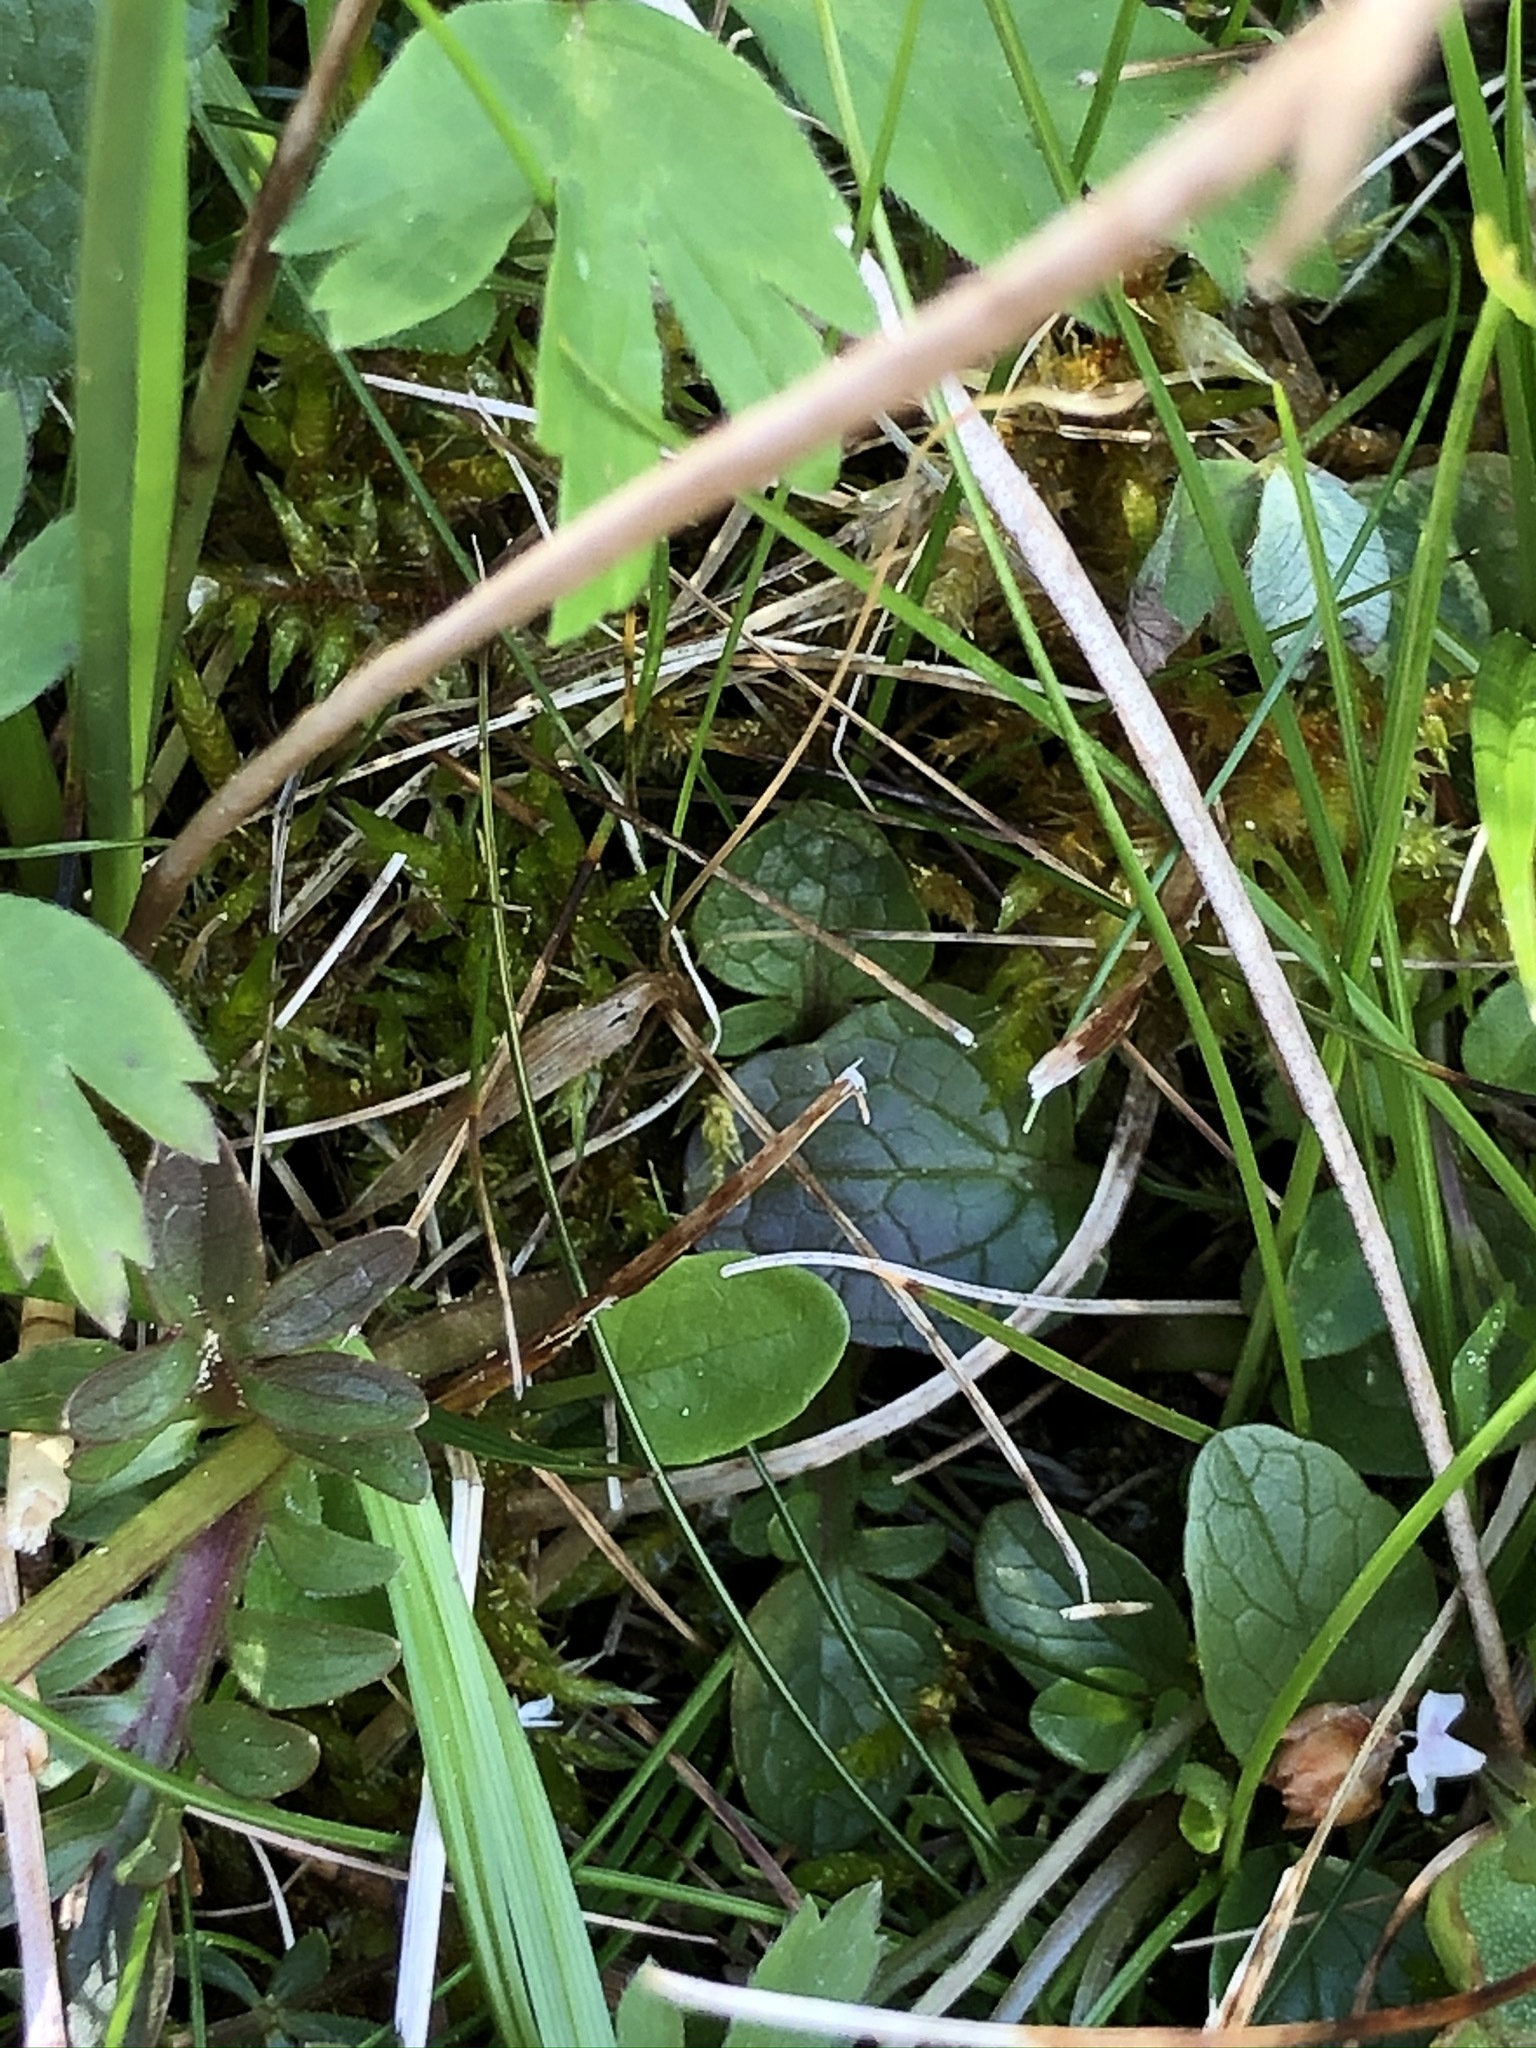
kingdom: Plantae
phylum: Tracheophyta
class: Magnoliopsida
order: Dipsacales
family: Caprifoliaceae
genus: Valeriana
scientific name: Valeriana dioica
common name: Marsh valerian
